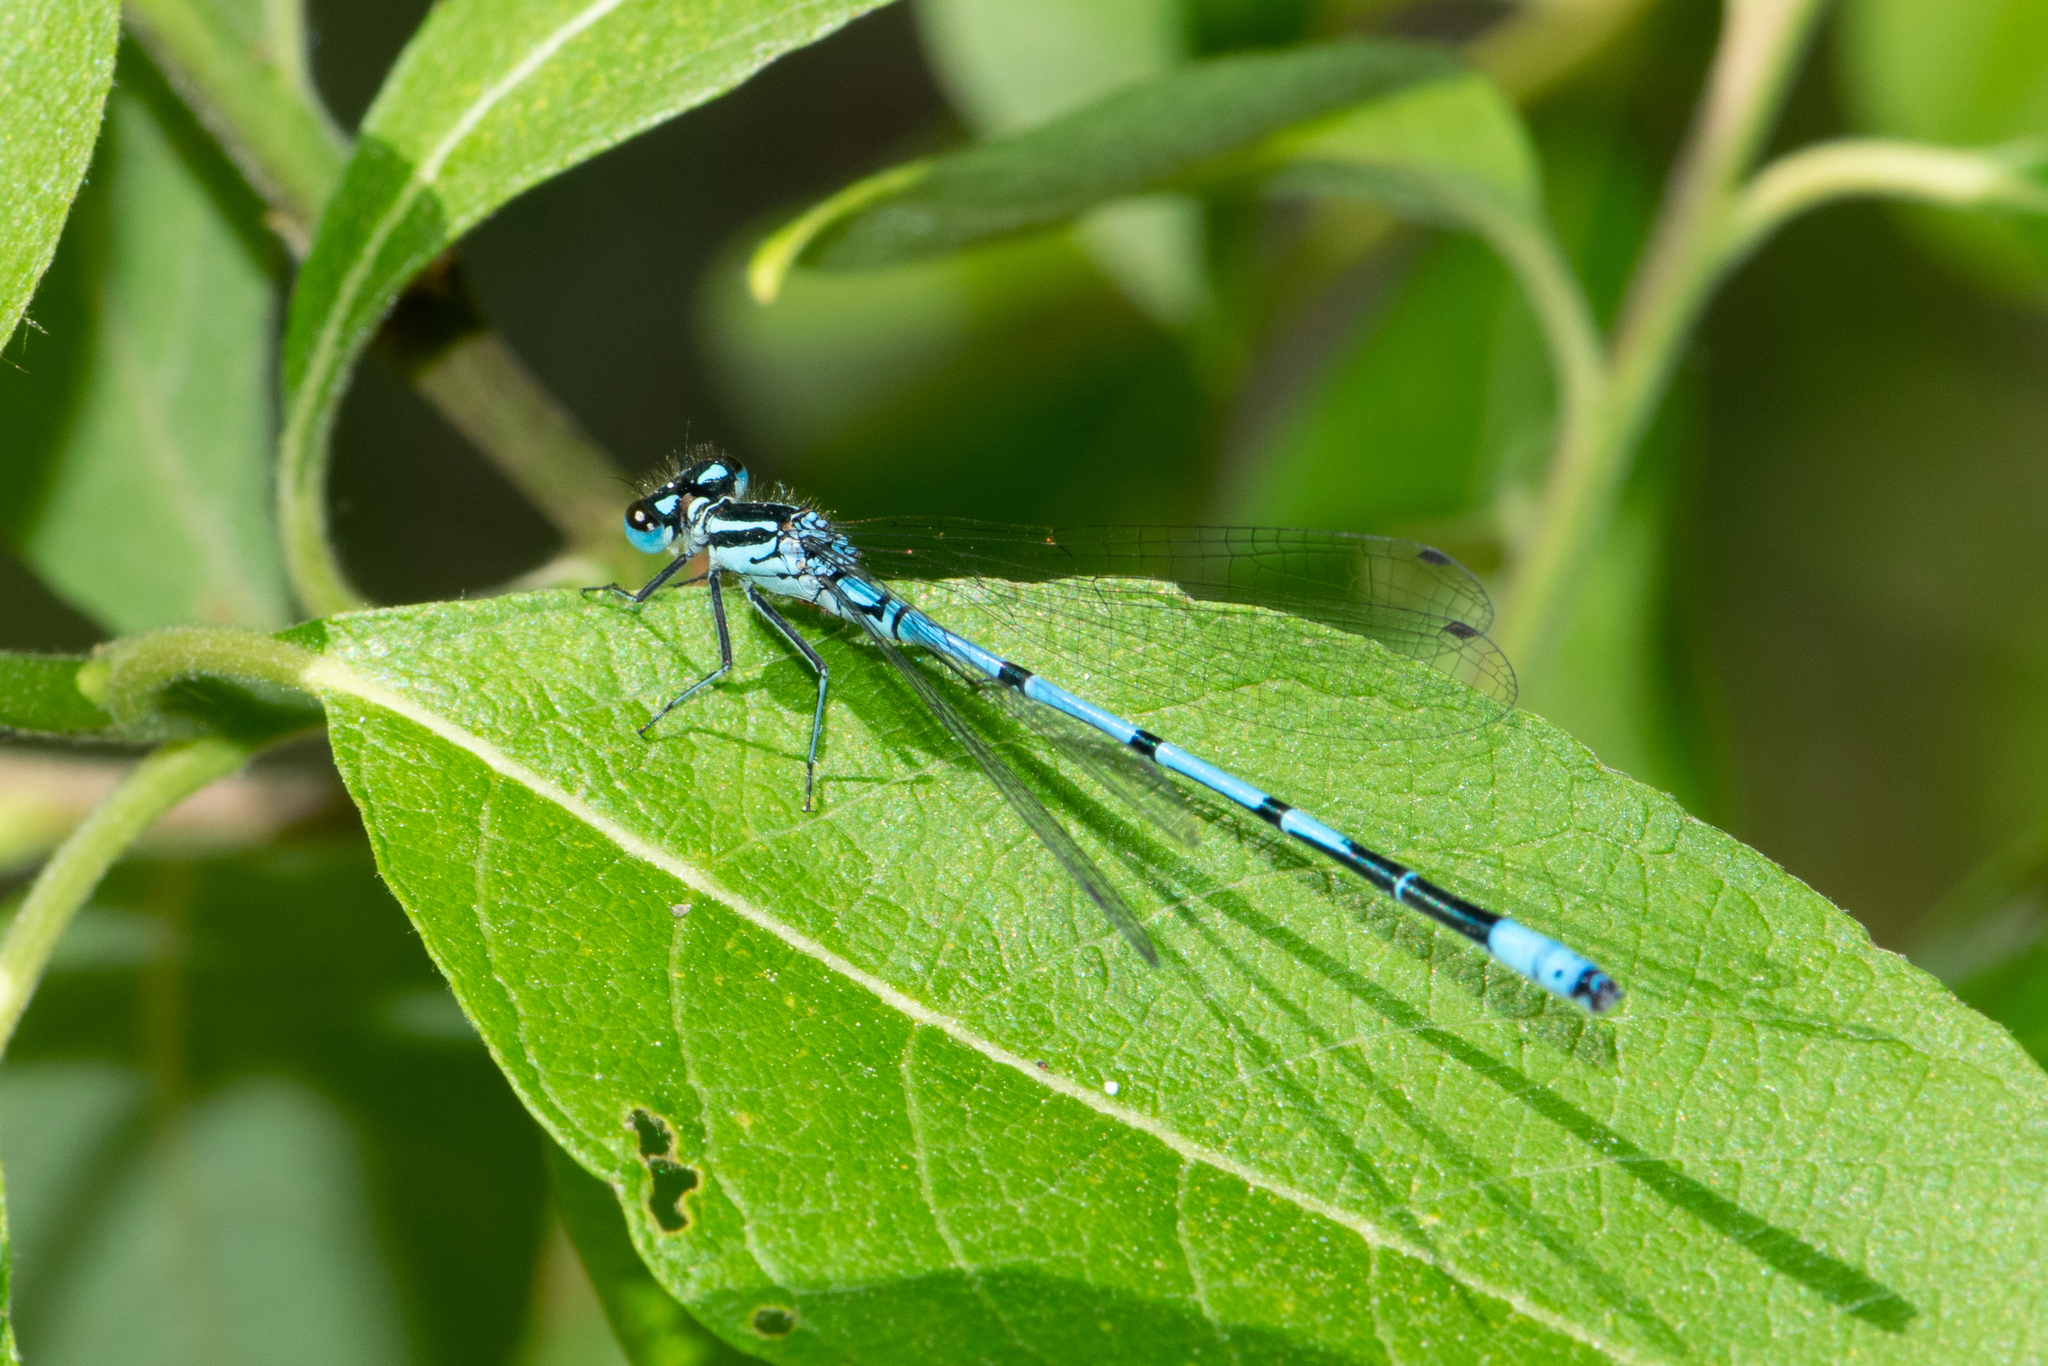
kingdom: Animalia
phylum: Arthropoda
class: Insecta
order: Odonata
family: Coenagrionidae
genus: Coenagrion
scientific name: Coenagrion puella
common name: Azure damselfly
